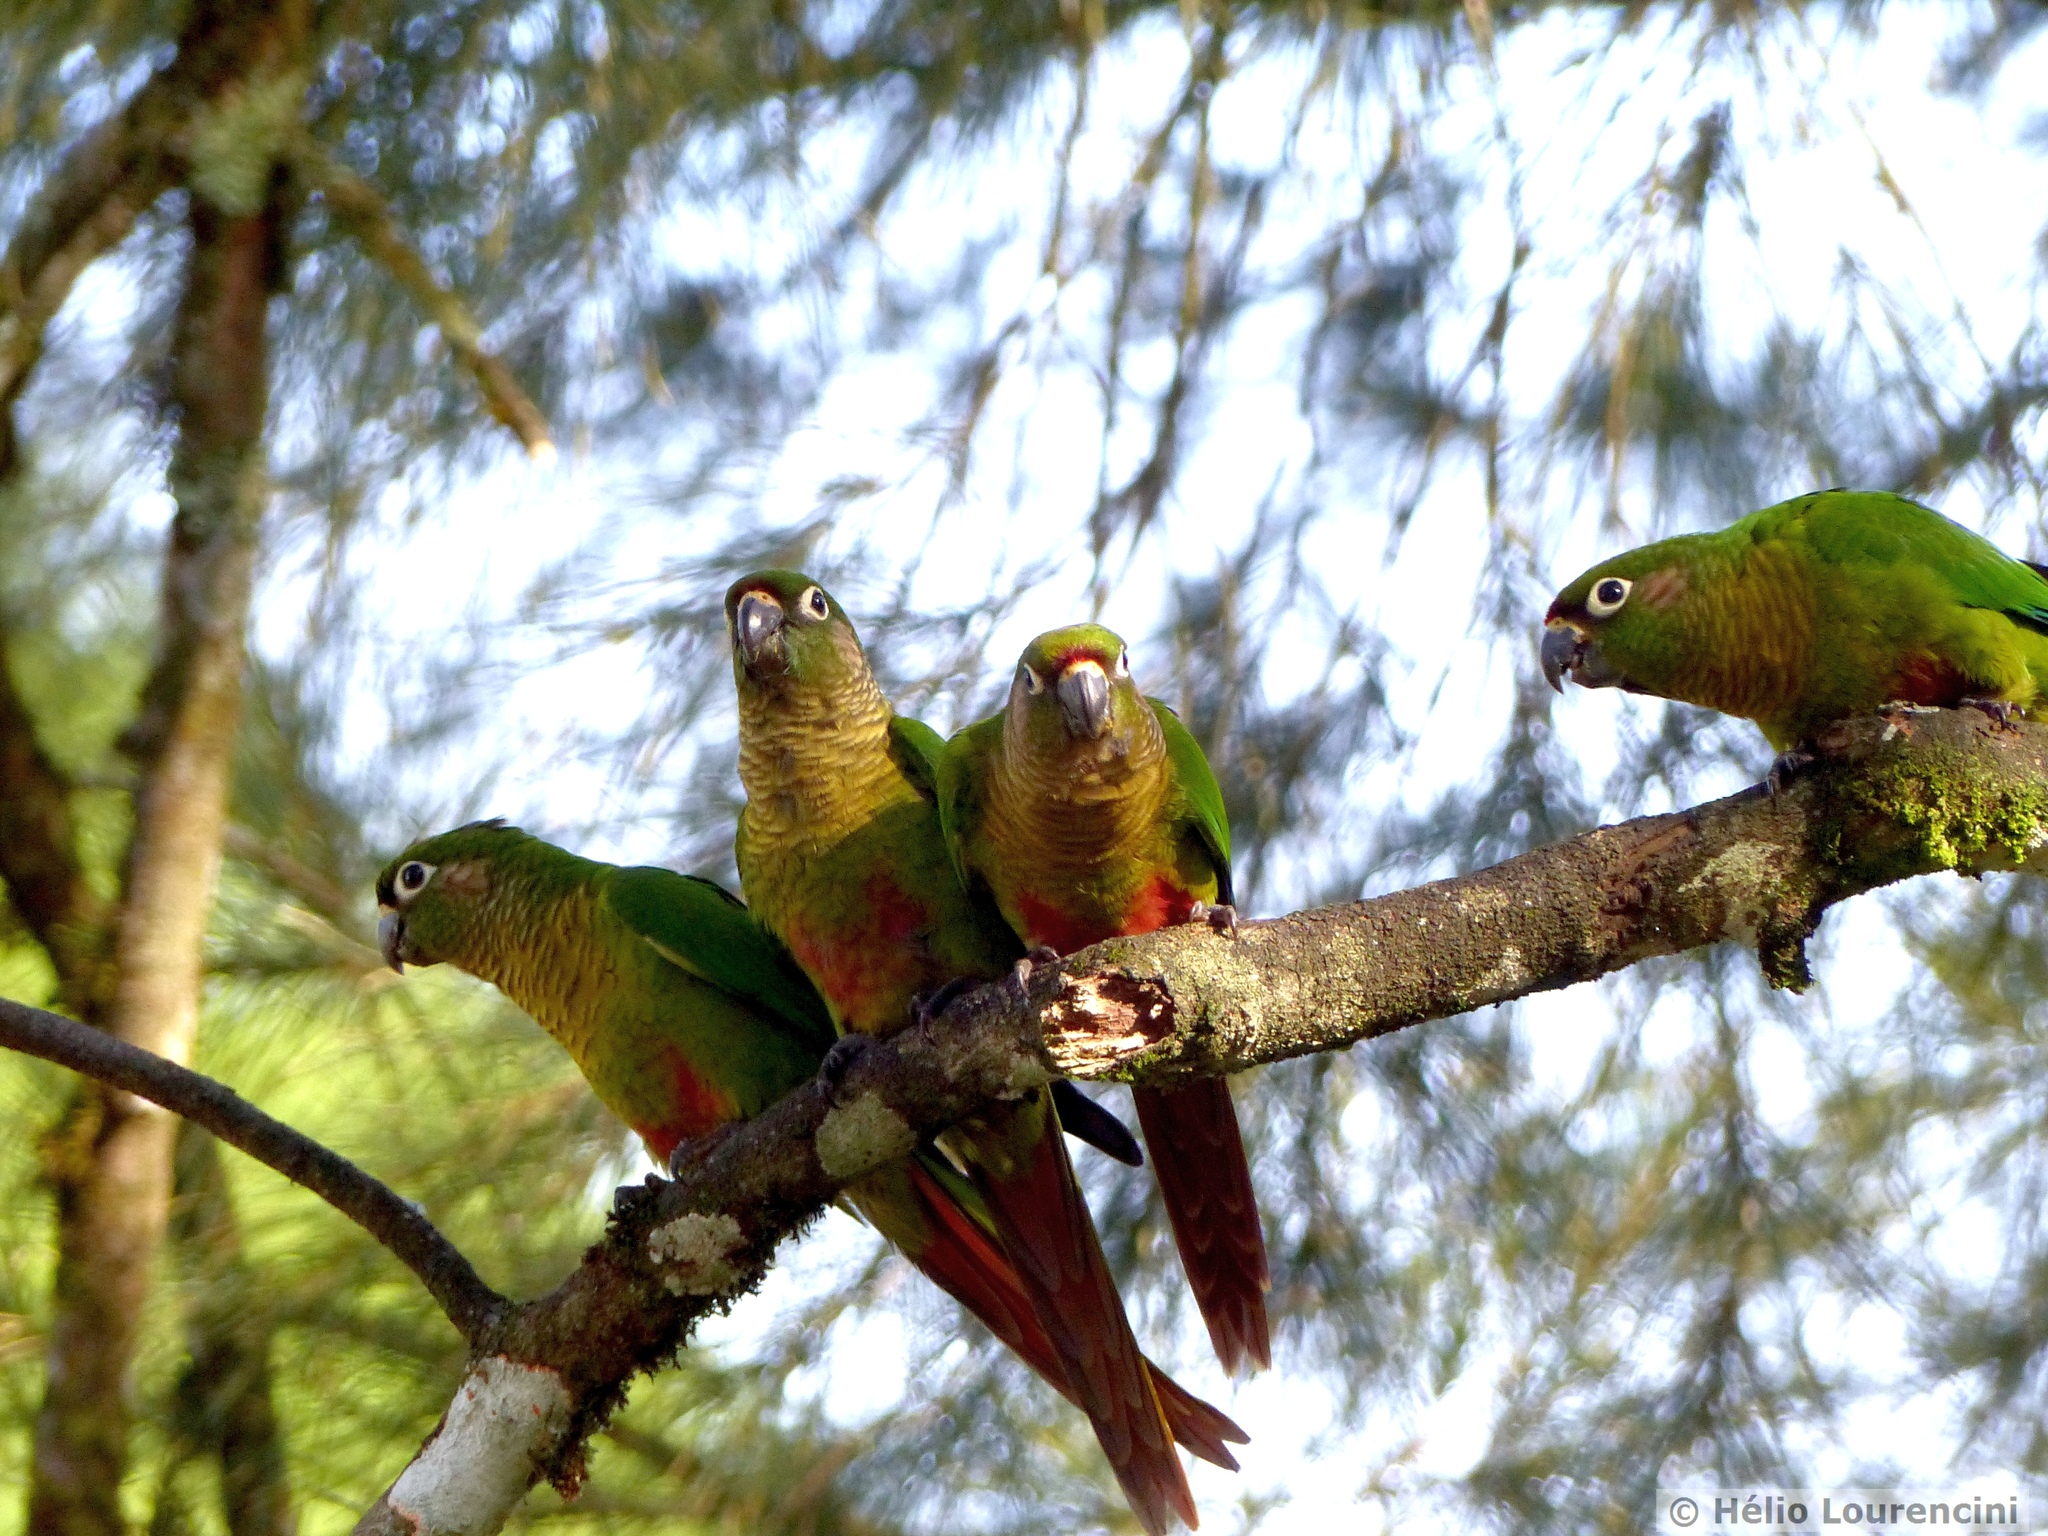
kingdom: Animalia
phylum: Chordata
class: Aves
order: Psittaciformes
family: Psittacidae
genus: Pyrrhura
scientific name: Pyrrhura frontalis
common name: Maroon-bellied parakeet
